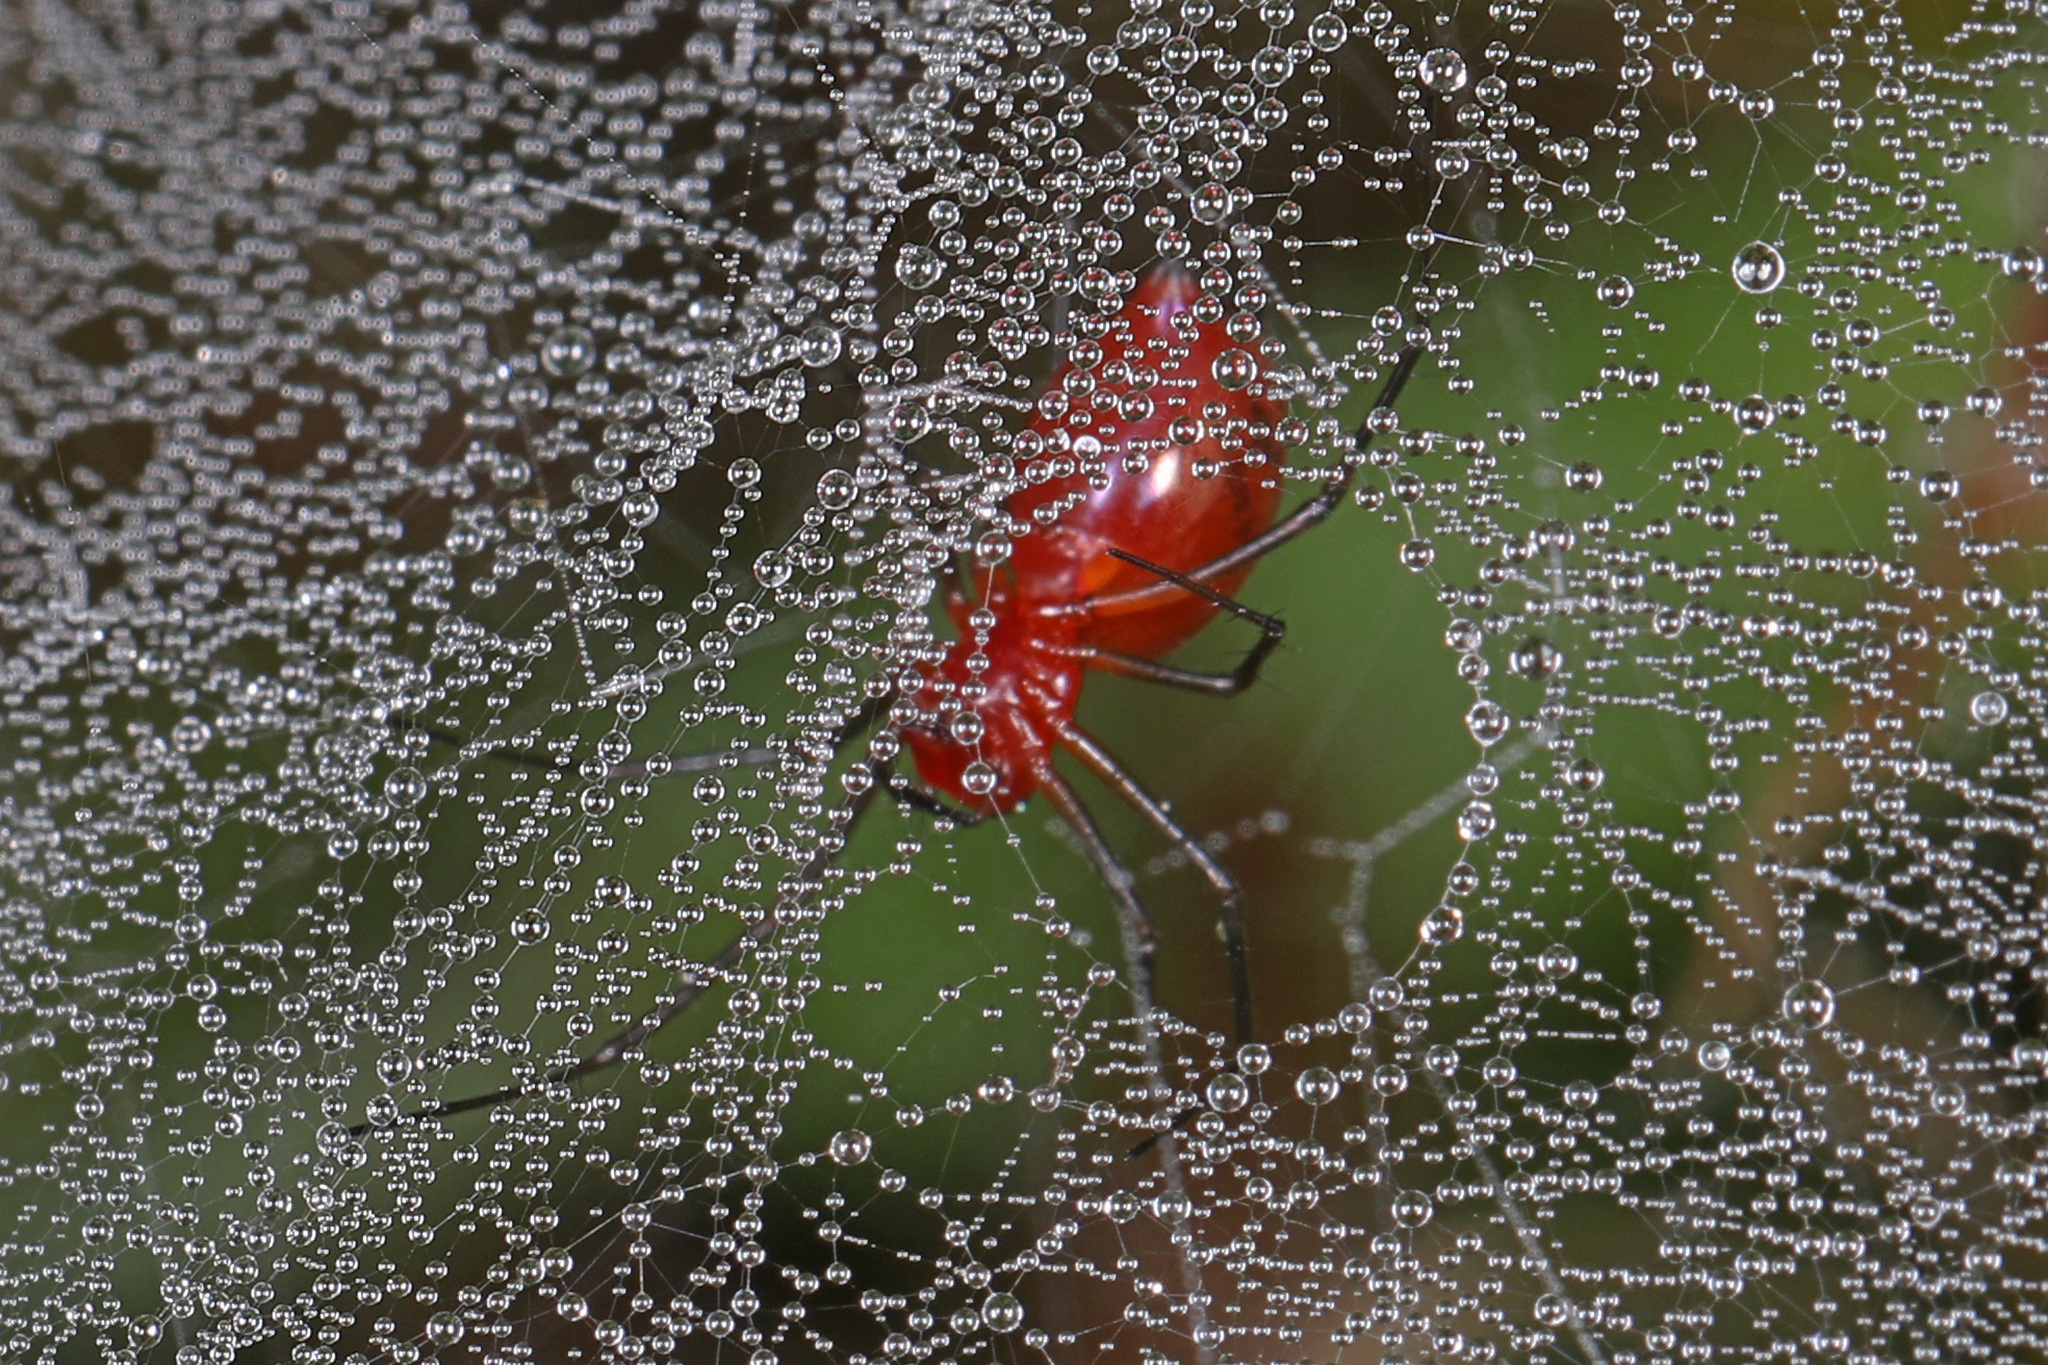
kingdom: Animalia
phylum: Arthropoda
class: Arachnida
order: Araneae
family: Linyphiidae
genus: Florinda
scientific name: Florinda coccinea
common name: Black-tailed red sheetweaver
